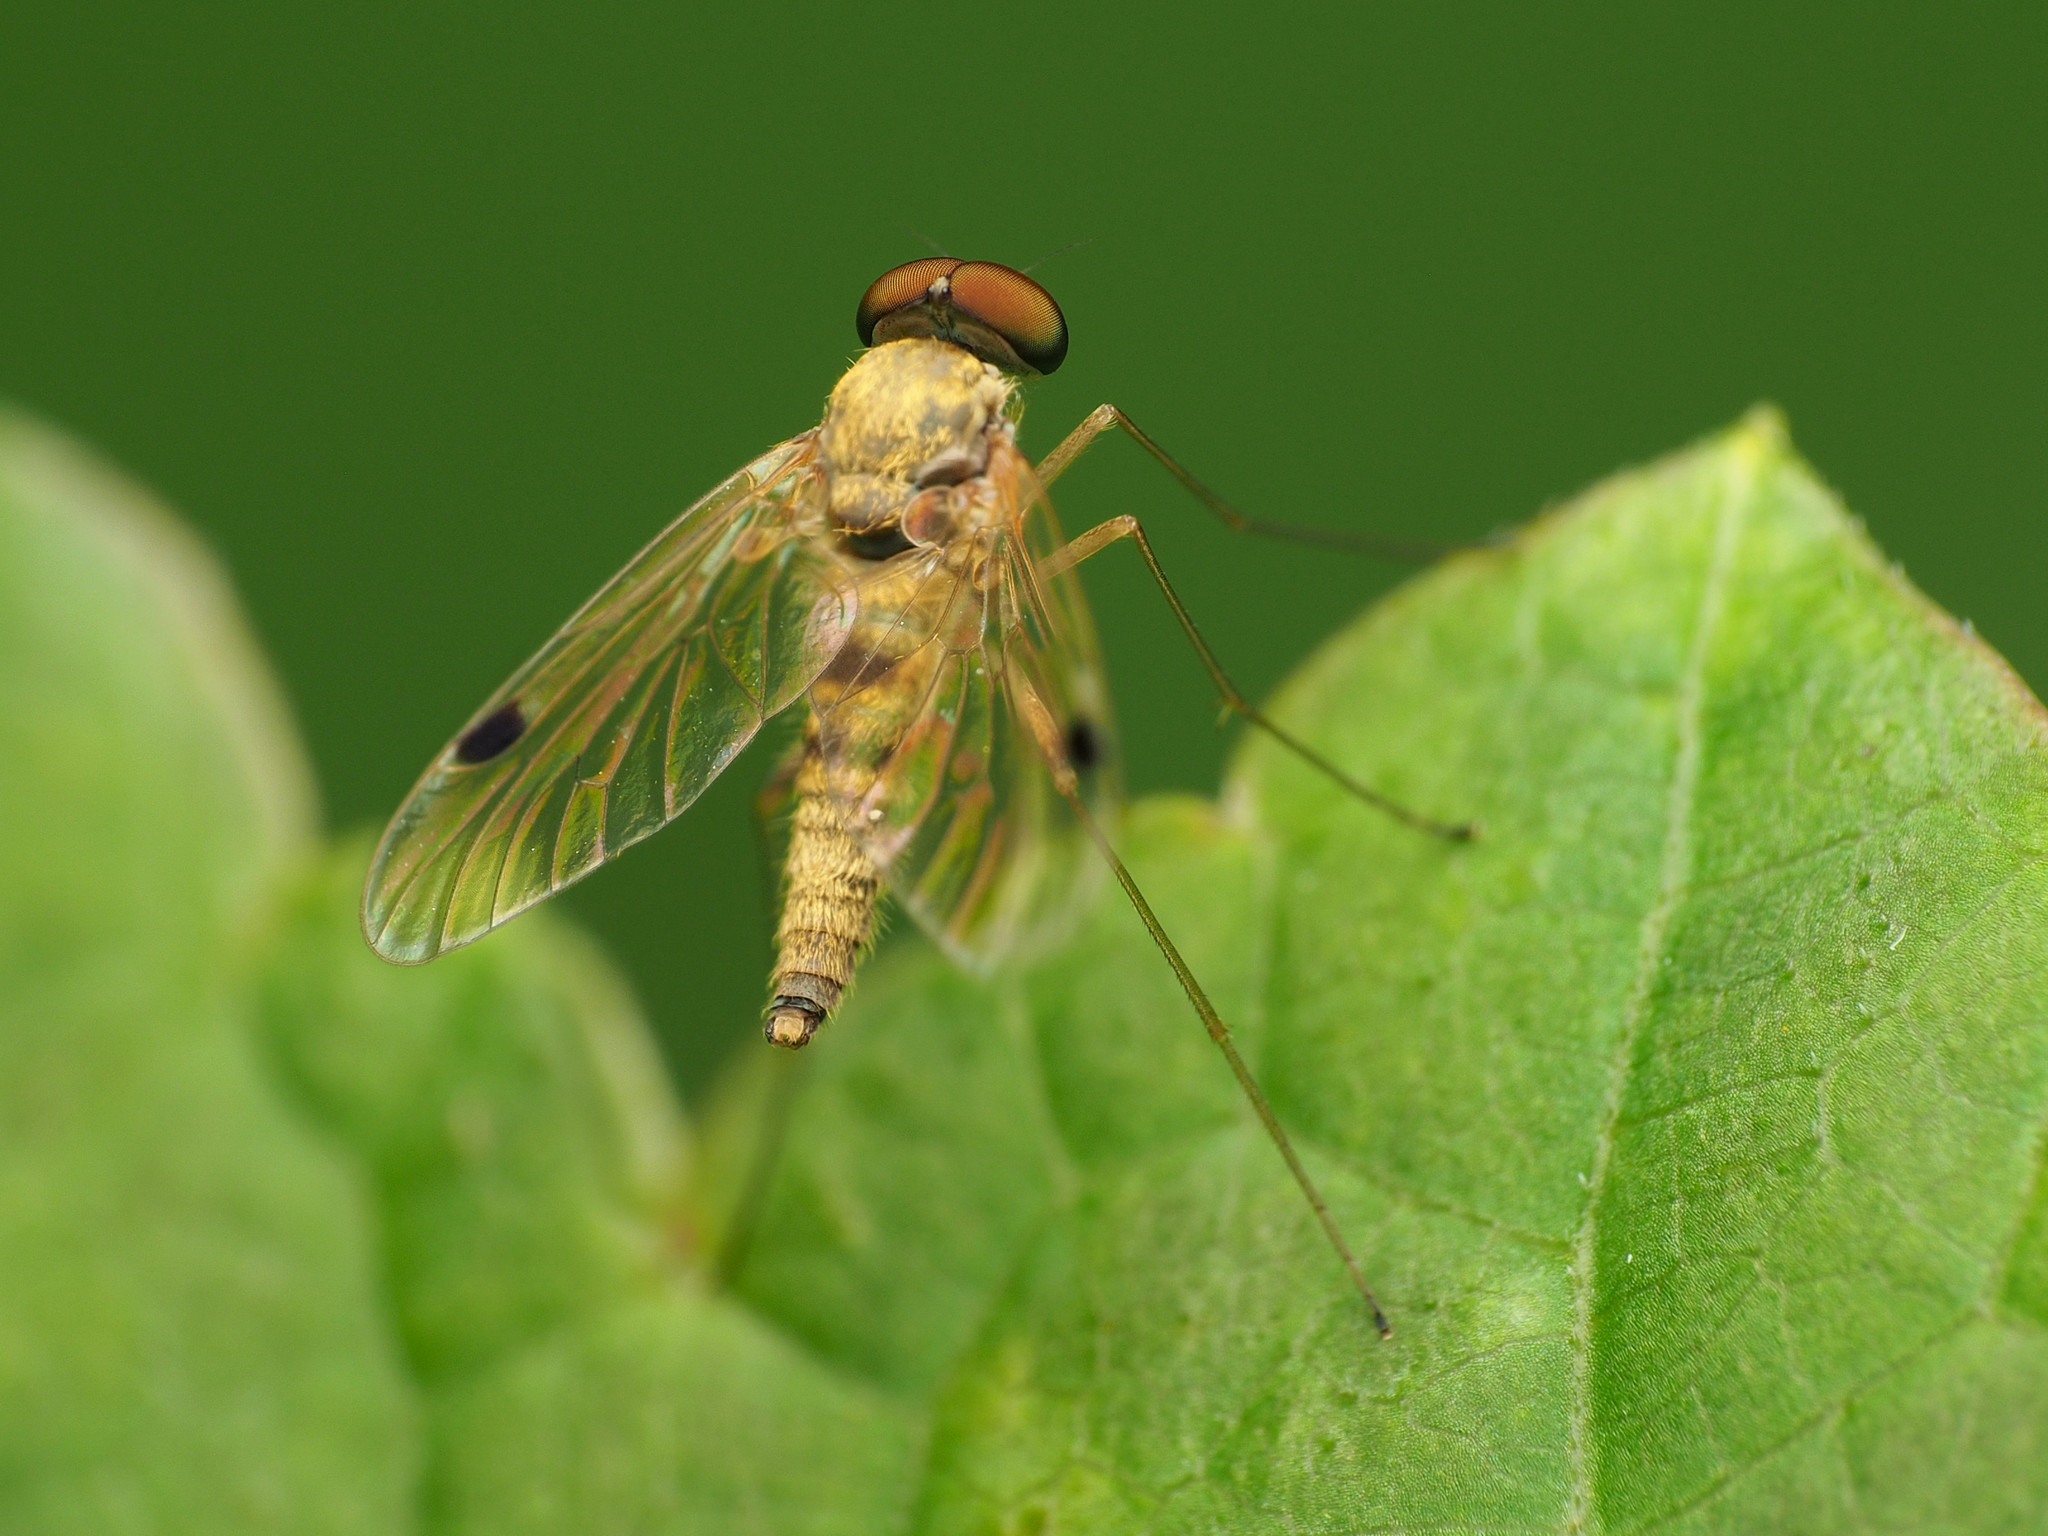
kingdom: Animalia
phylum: Arthropoda
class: Insecta
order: Diptera
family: Rhagionidae
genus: Chrysopilus
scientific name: Chrysopilus modestus
